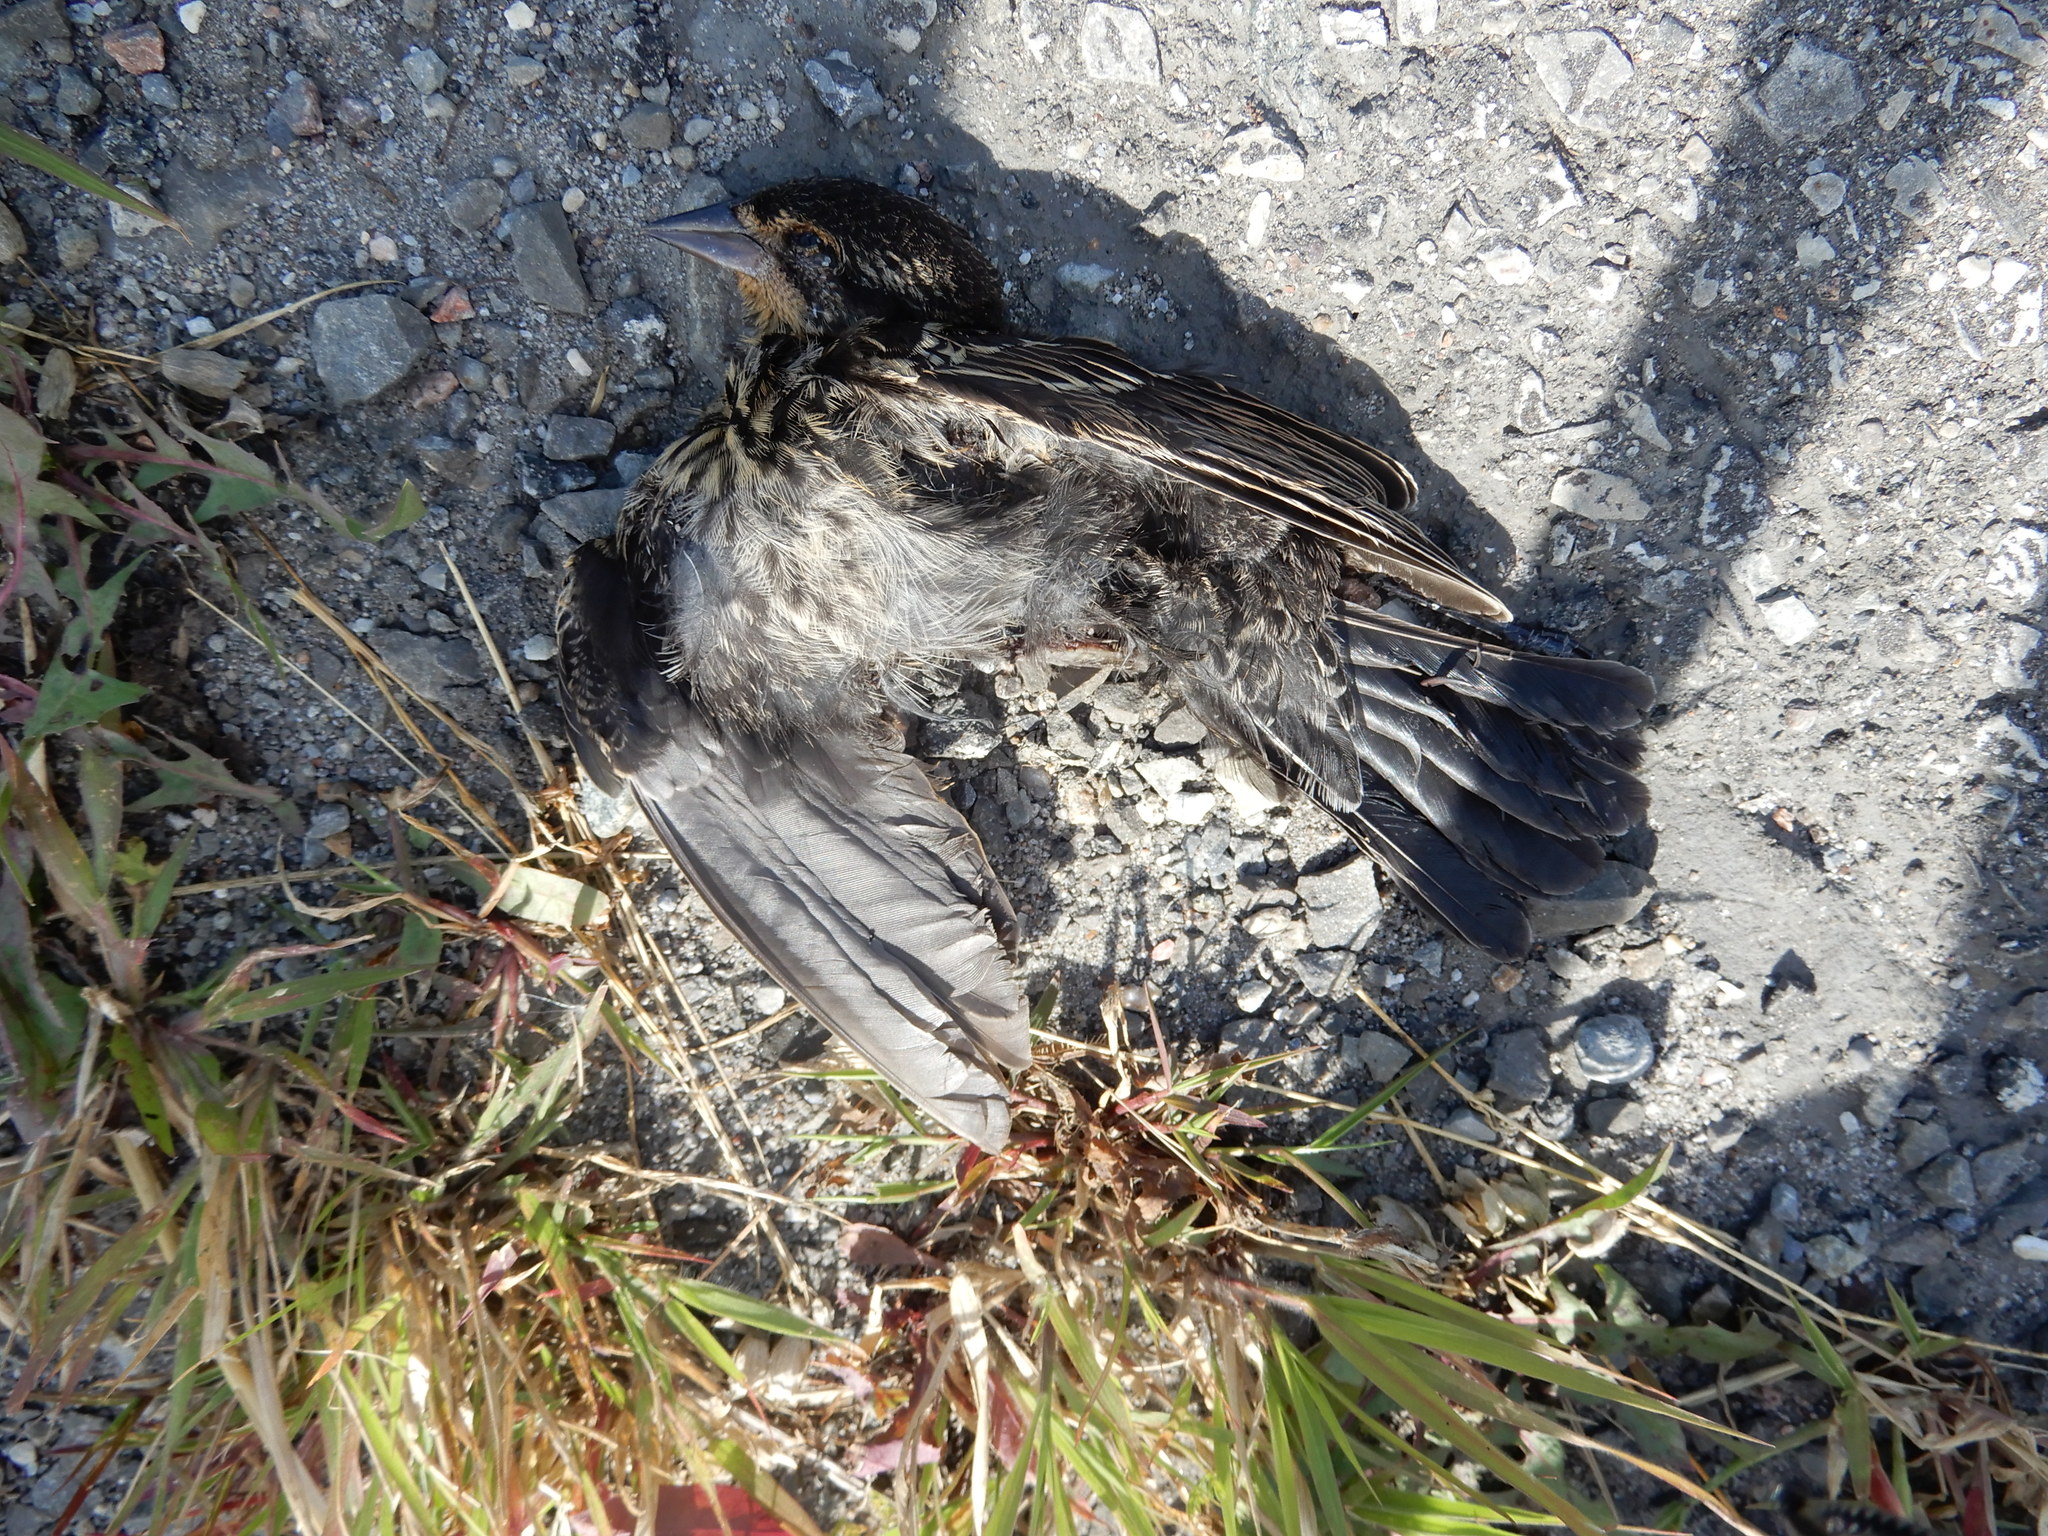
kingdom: Animalia
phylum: Chordata
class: Aves
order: Passeriformes
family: Icteridae
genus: Agelaius
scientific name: Agelaius phoeniceus
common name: Red-winged blackbird
